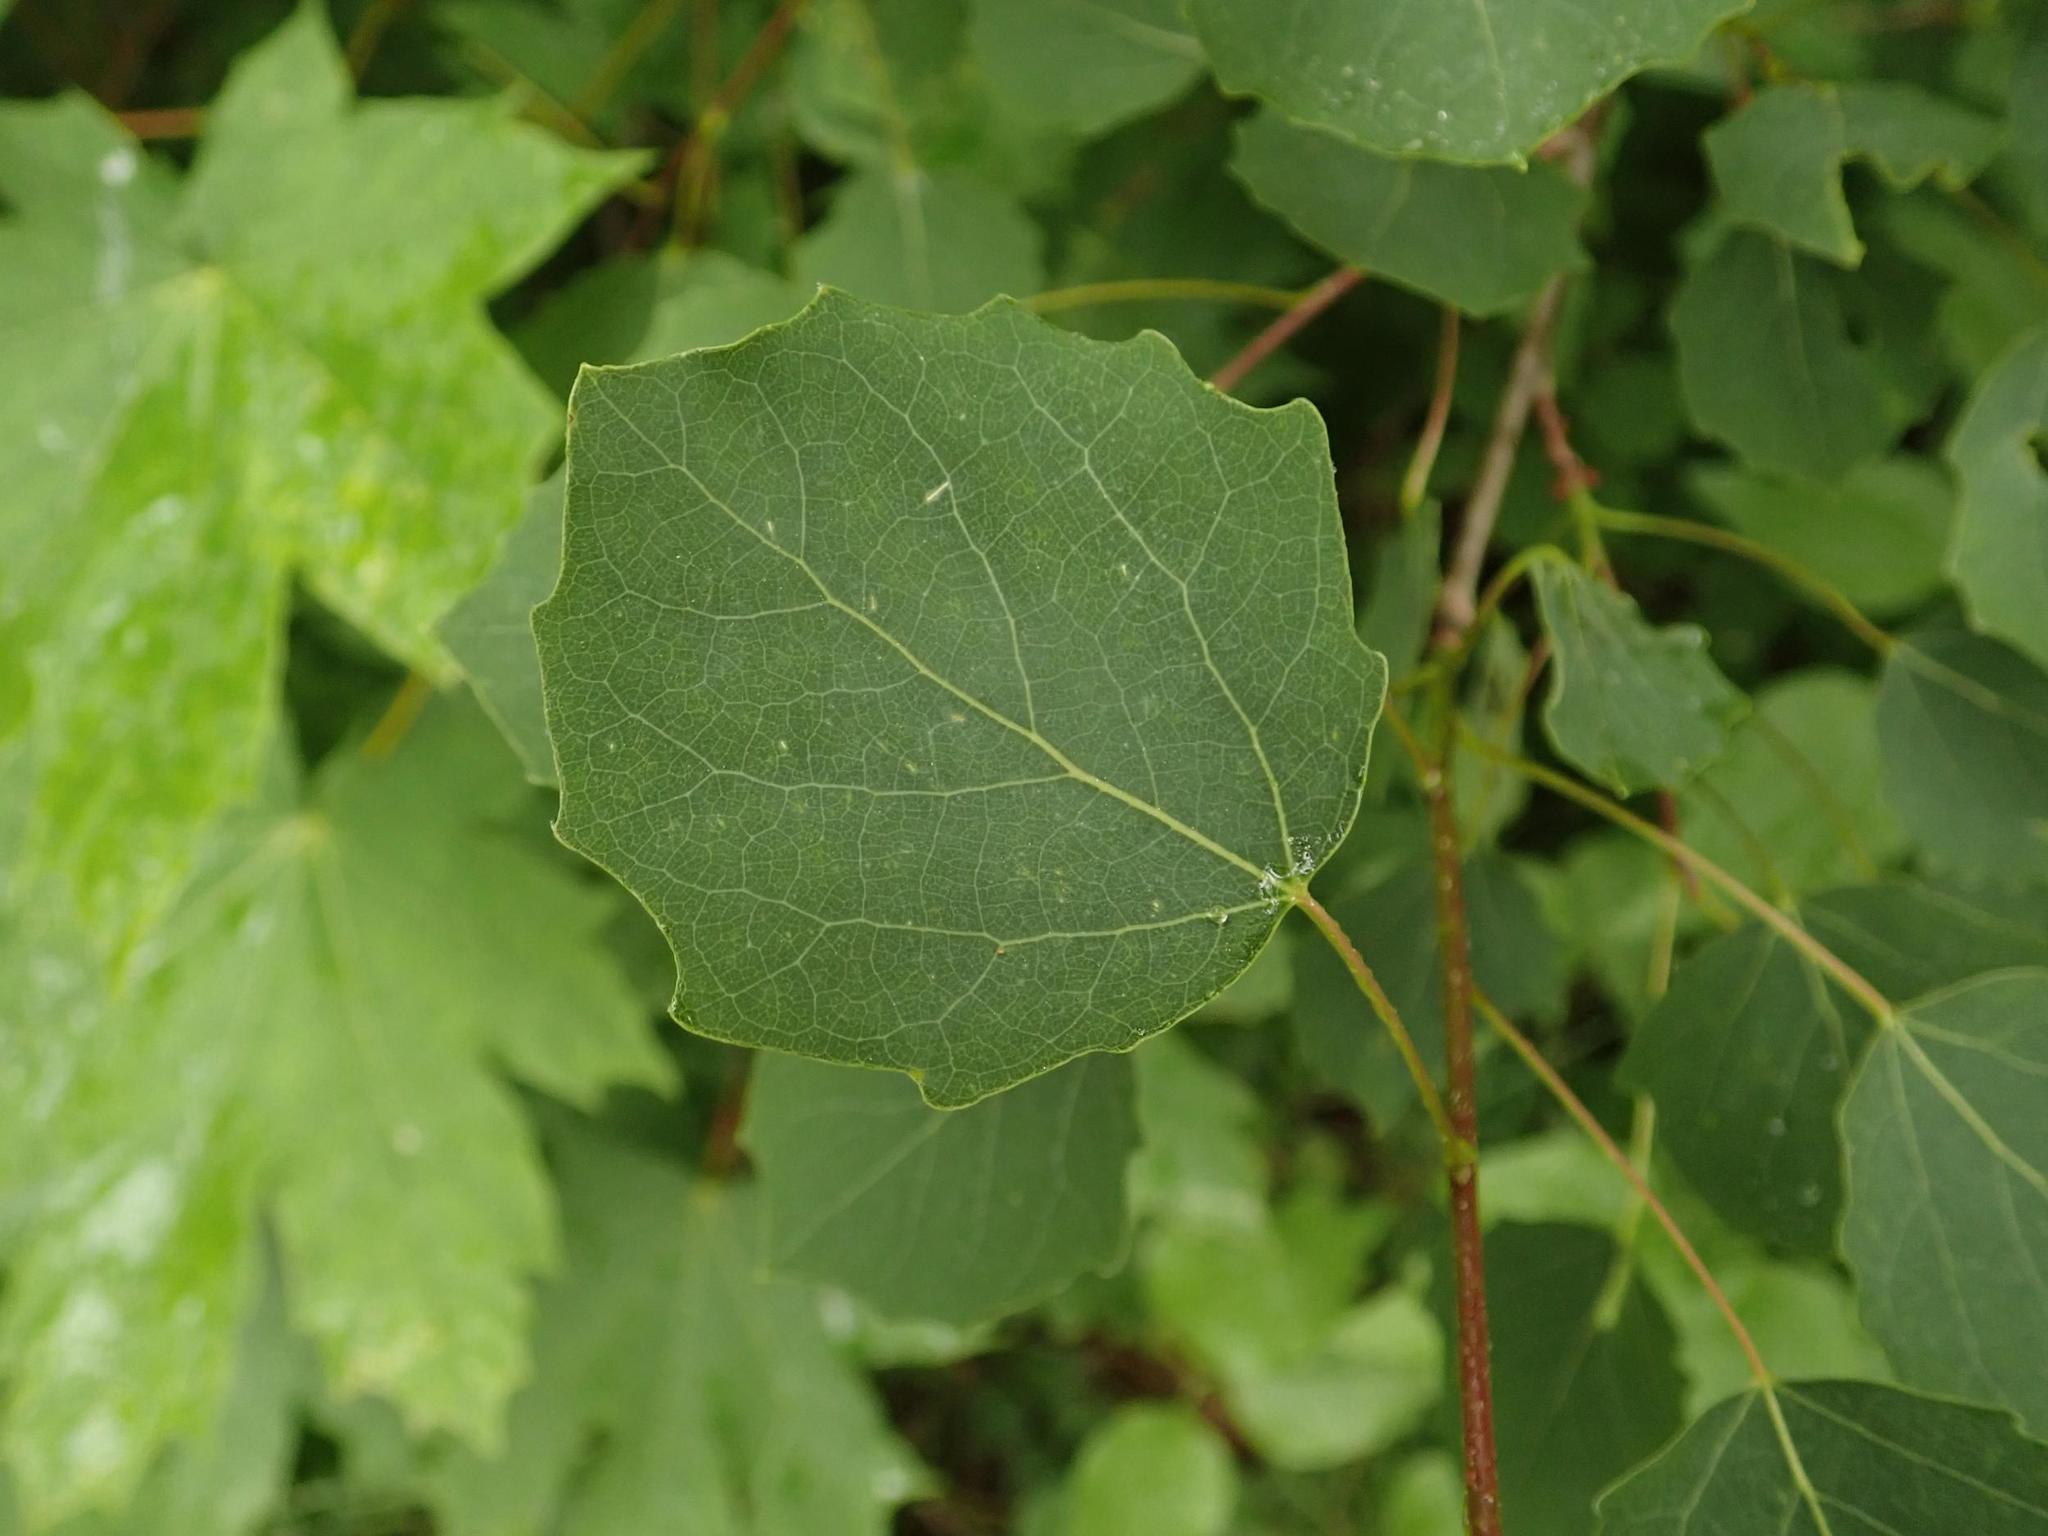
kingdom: Plantae
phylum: Tracheophyta
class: Magnoliopsida
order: Malpighiales
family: Salicaceae
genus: Populus
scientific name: Populus tremula
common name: European aspen
